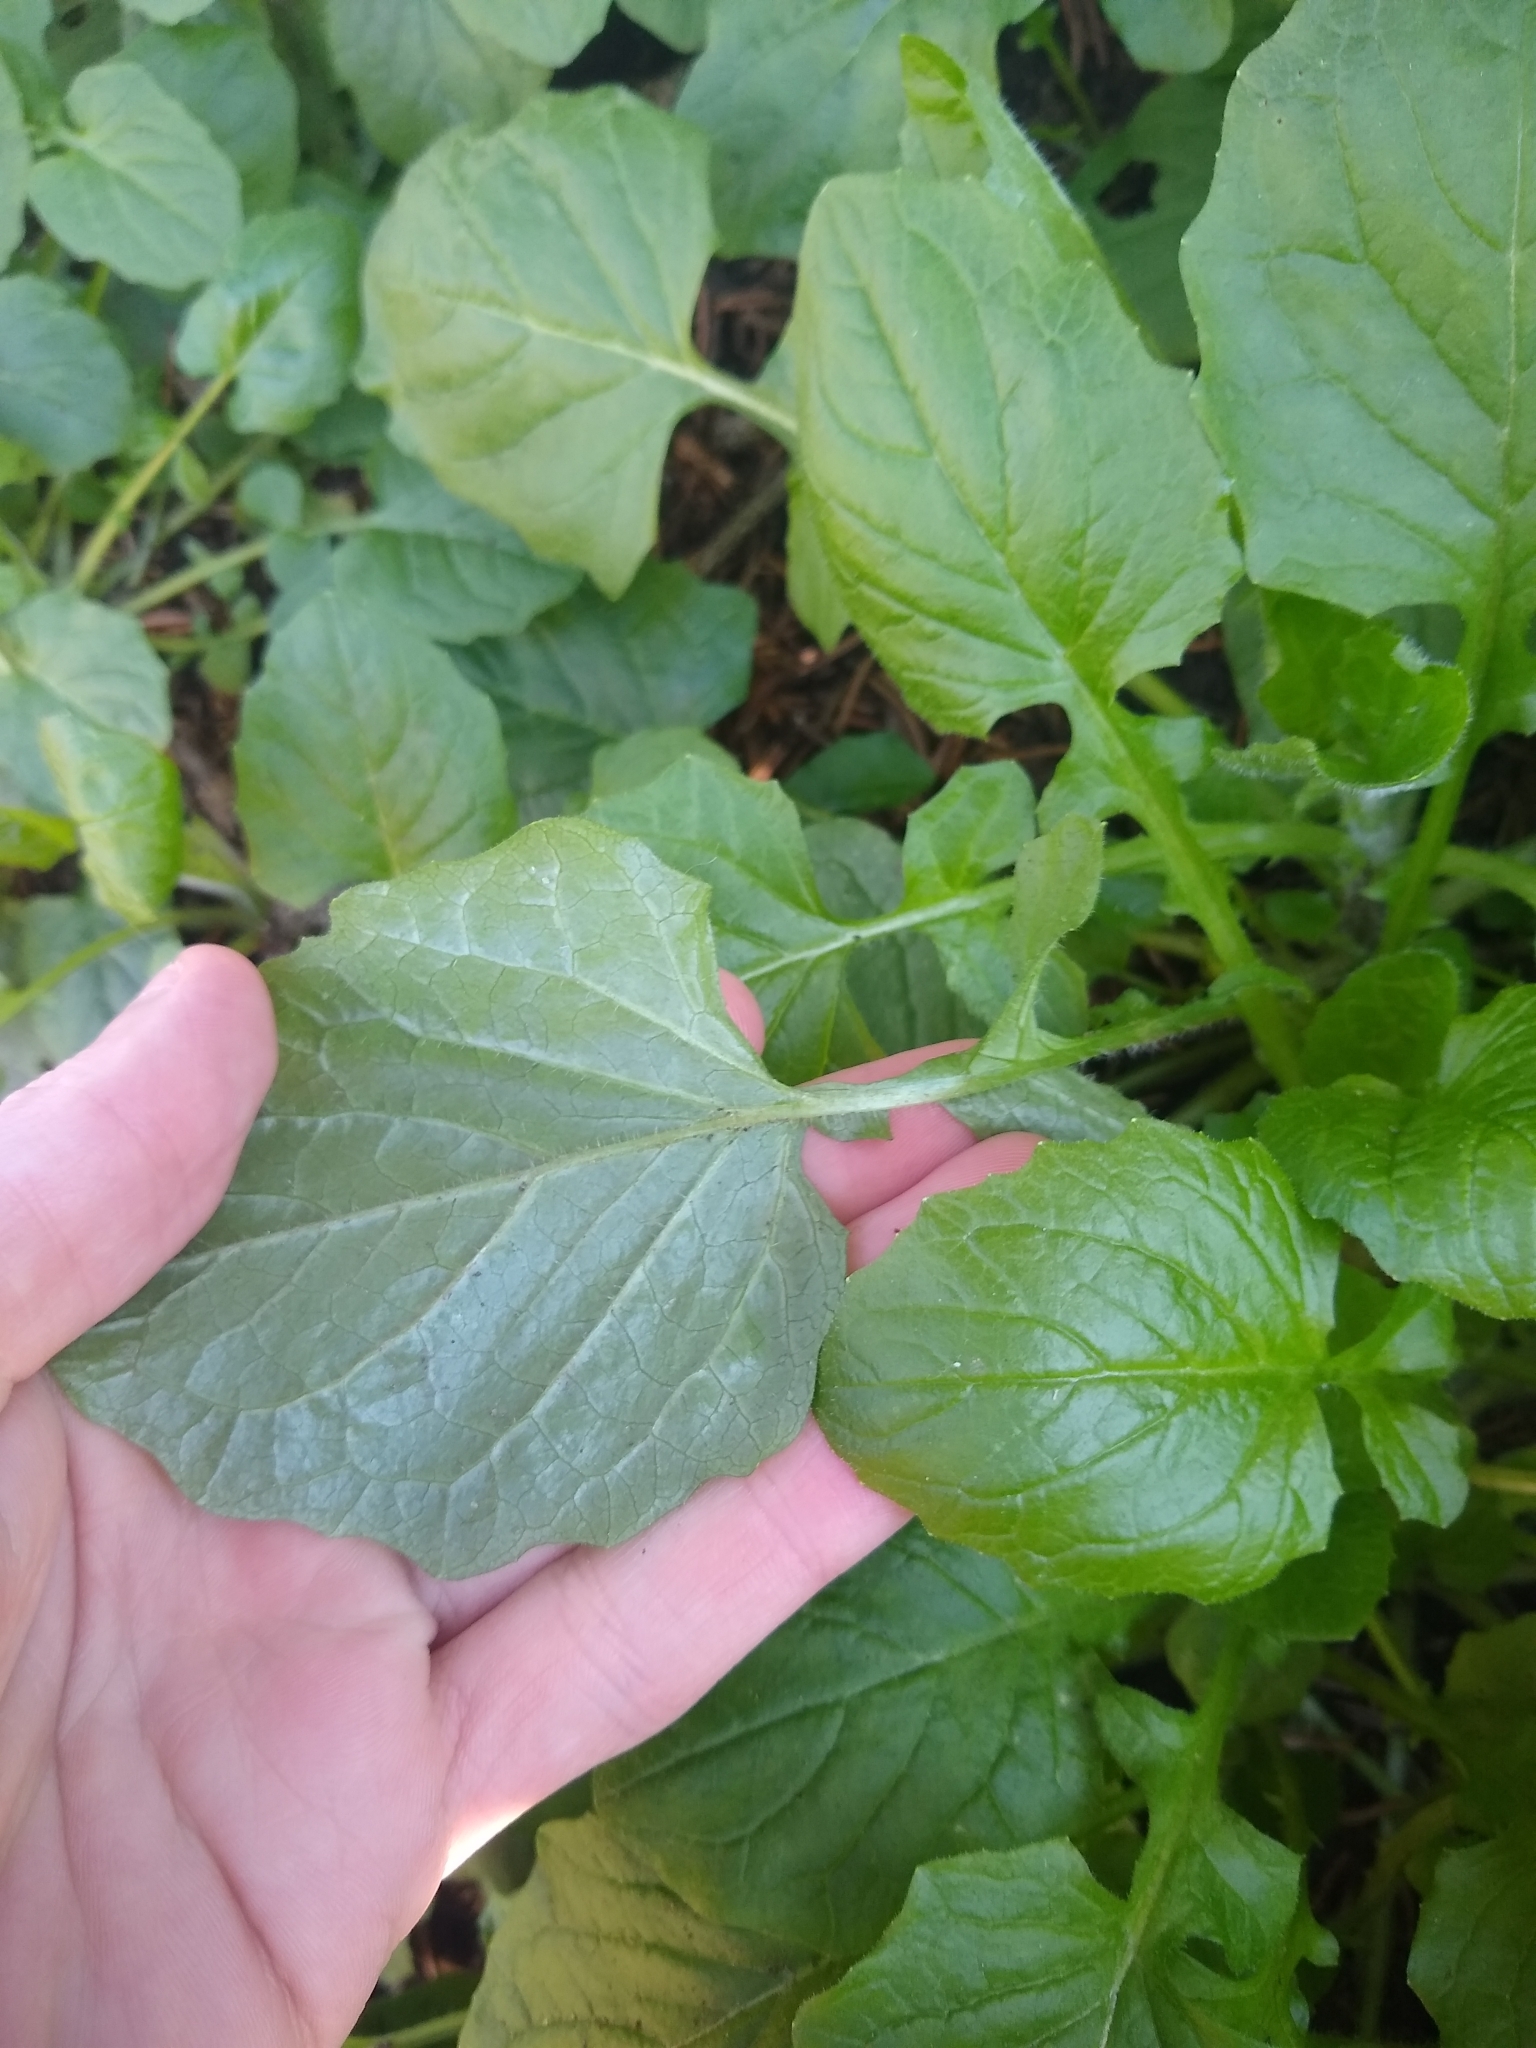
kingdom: Plantae
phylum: Tracheophyta
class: Magnoliopsida
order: Asterales
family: Asteraceae
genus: Lapsana
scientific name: Lapsana communis
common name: Nipplewort
